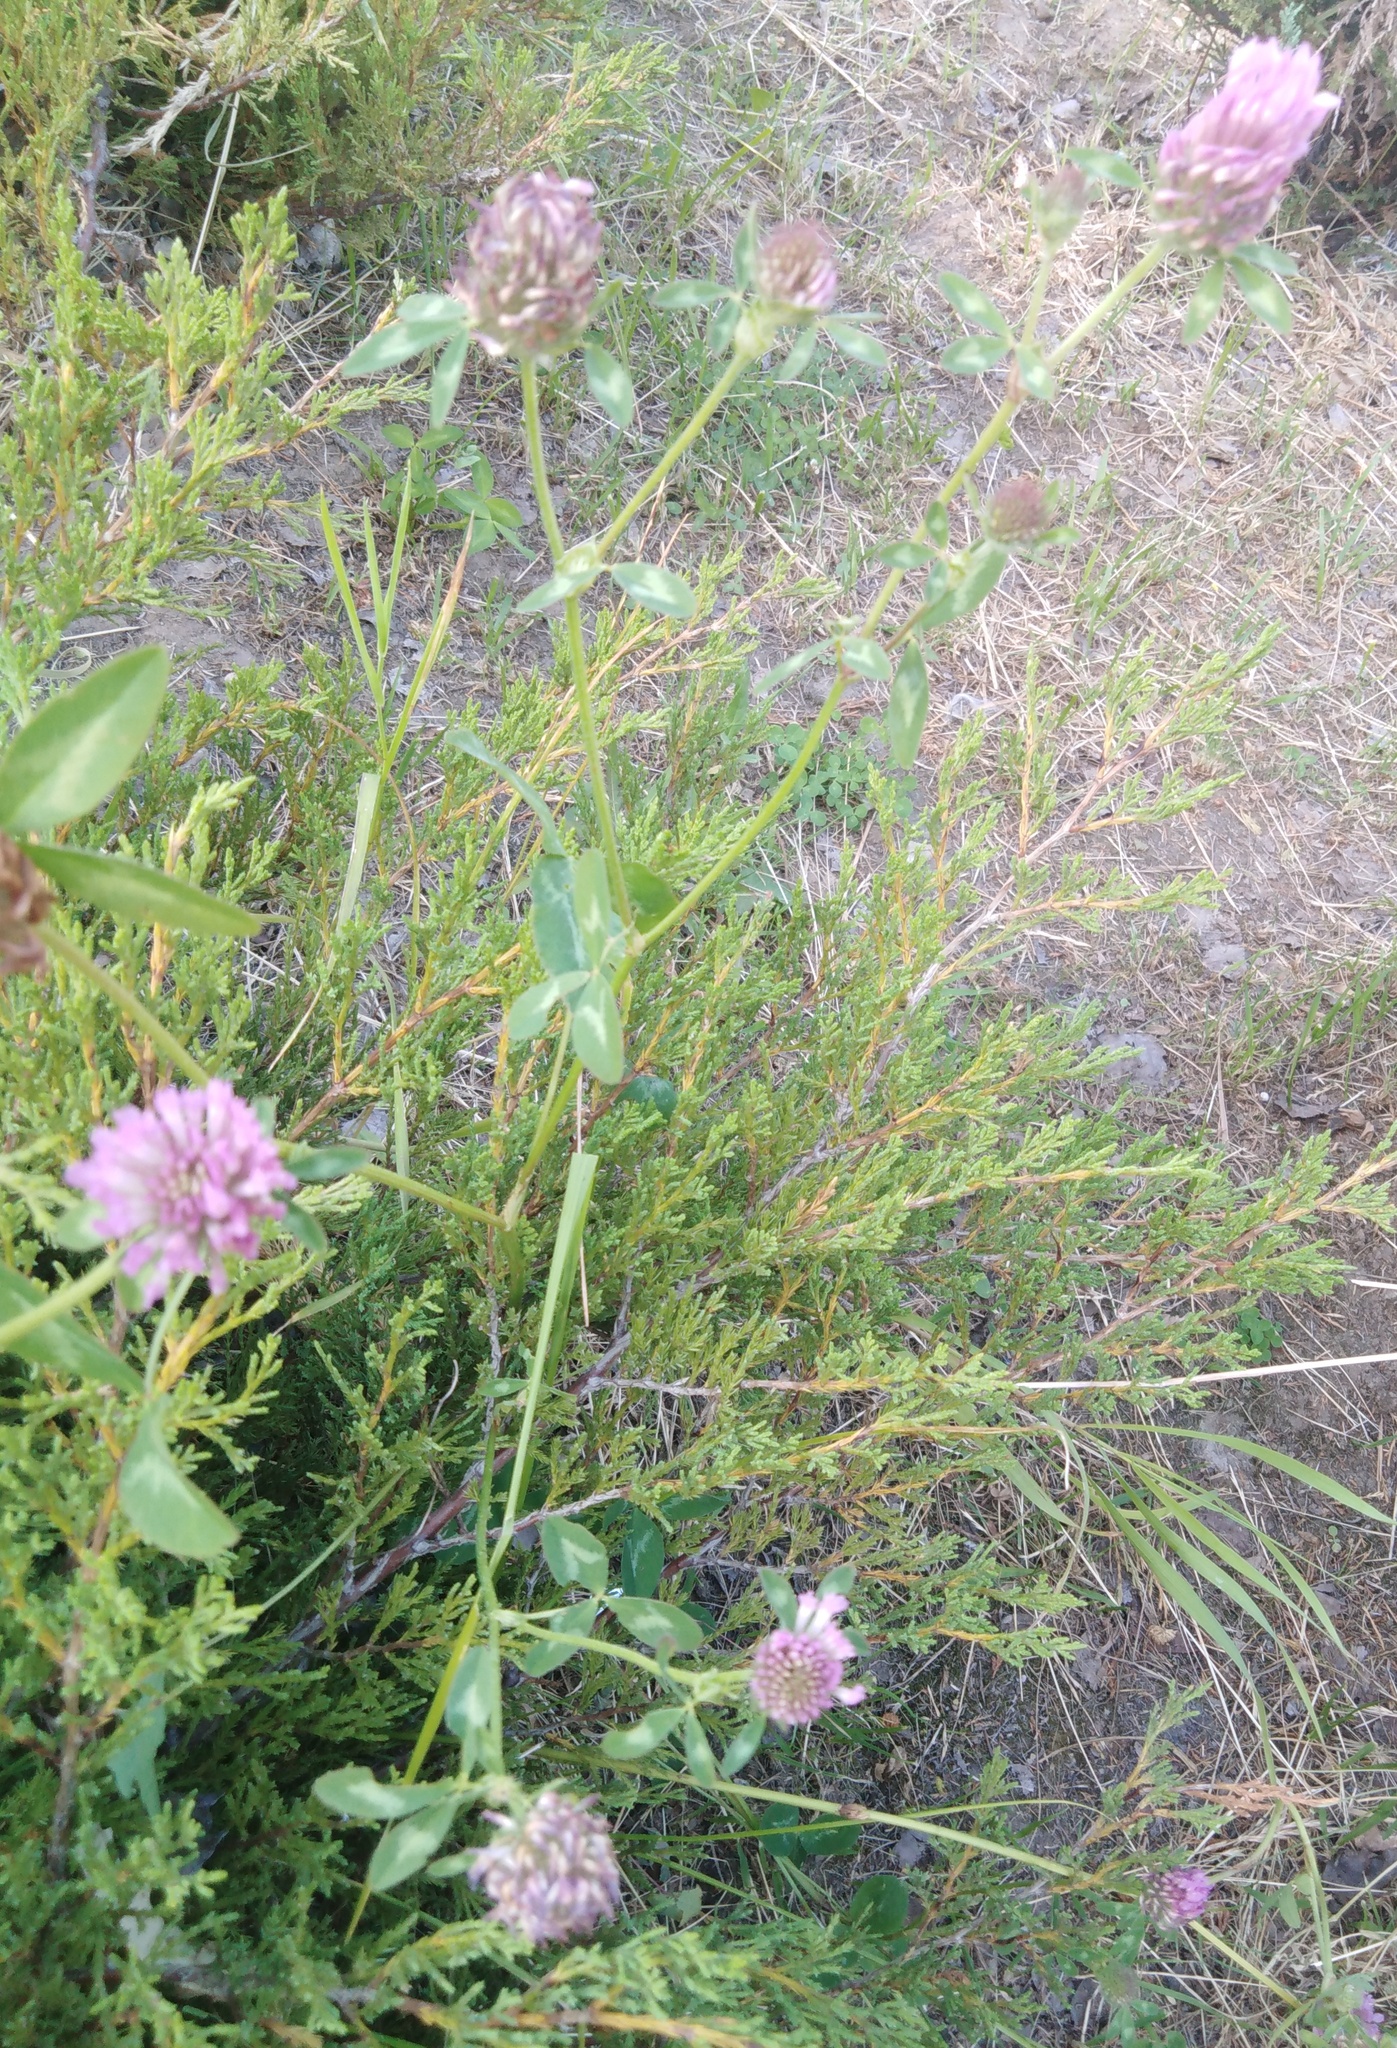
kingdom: Plantae
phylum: Tracheophyta
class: Magnoliopsida
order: Fabales
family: Fabaceae
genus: Trifolium
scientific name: Trifolium pratense
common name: Red clover
